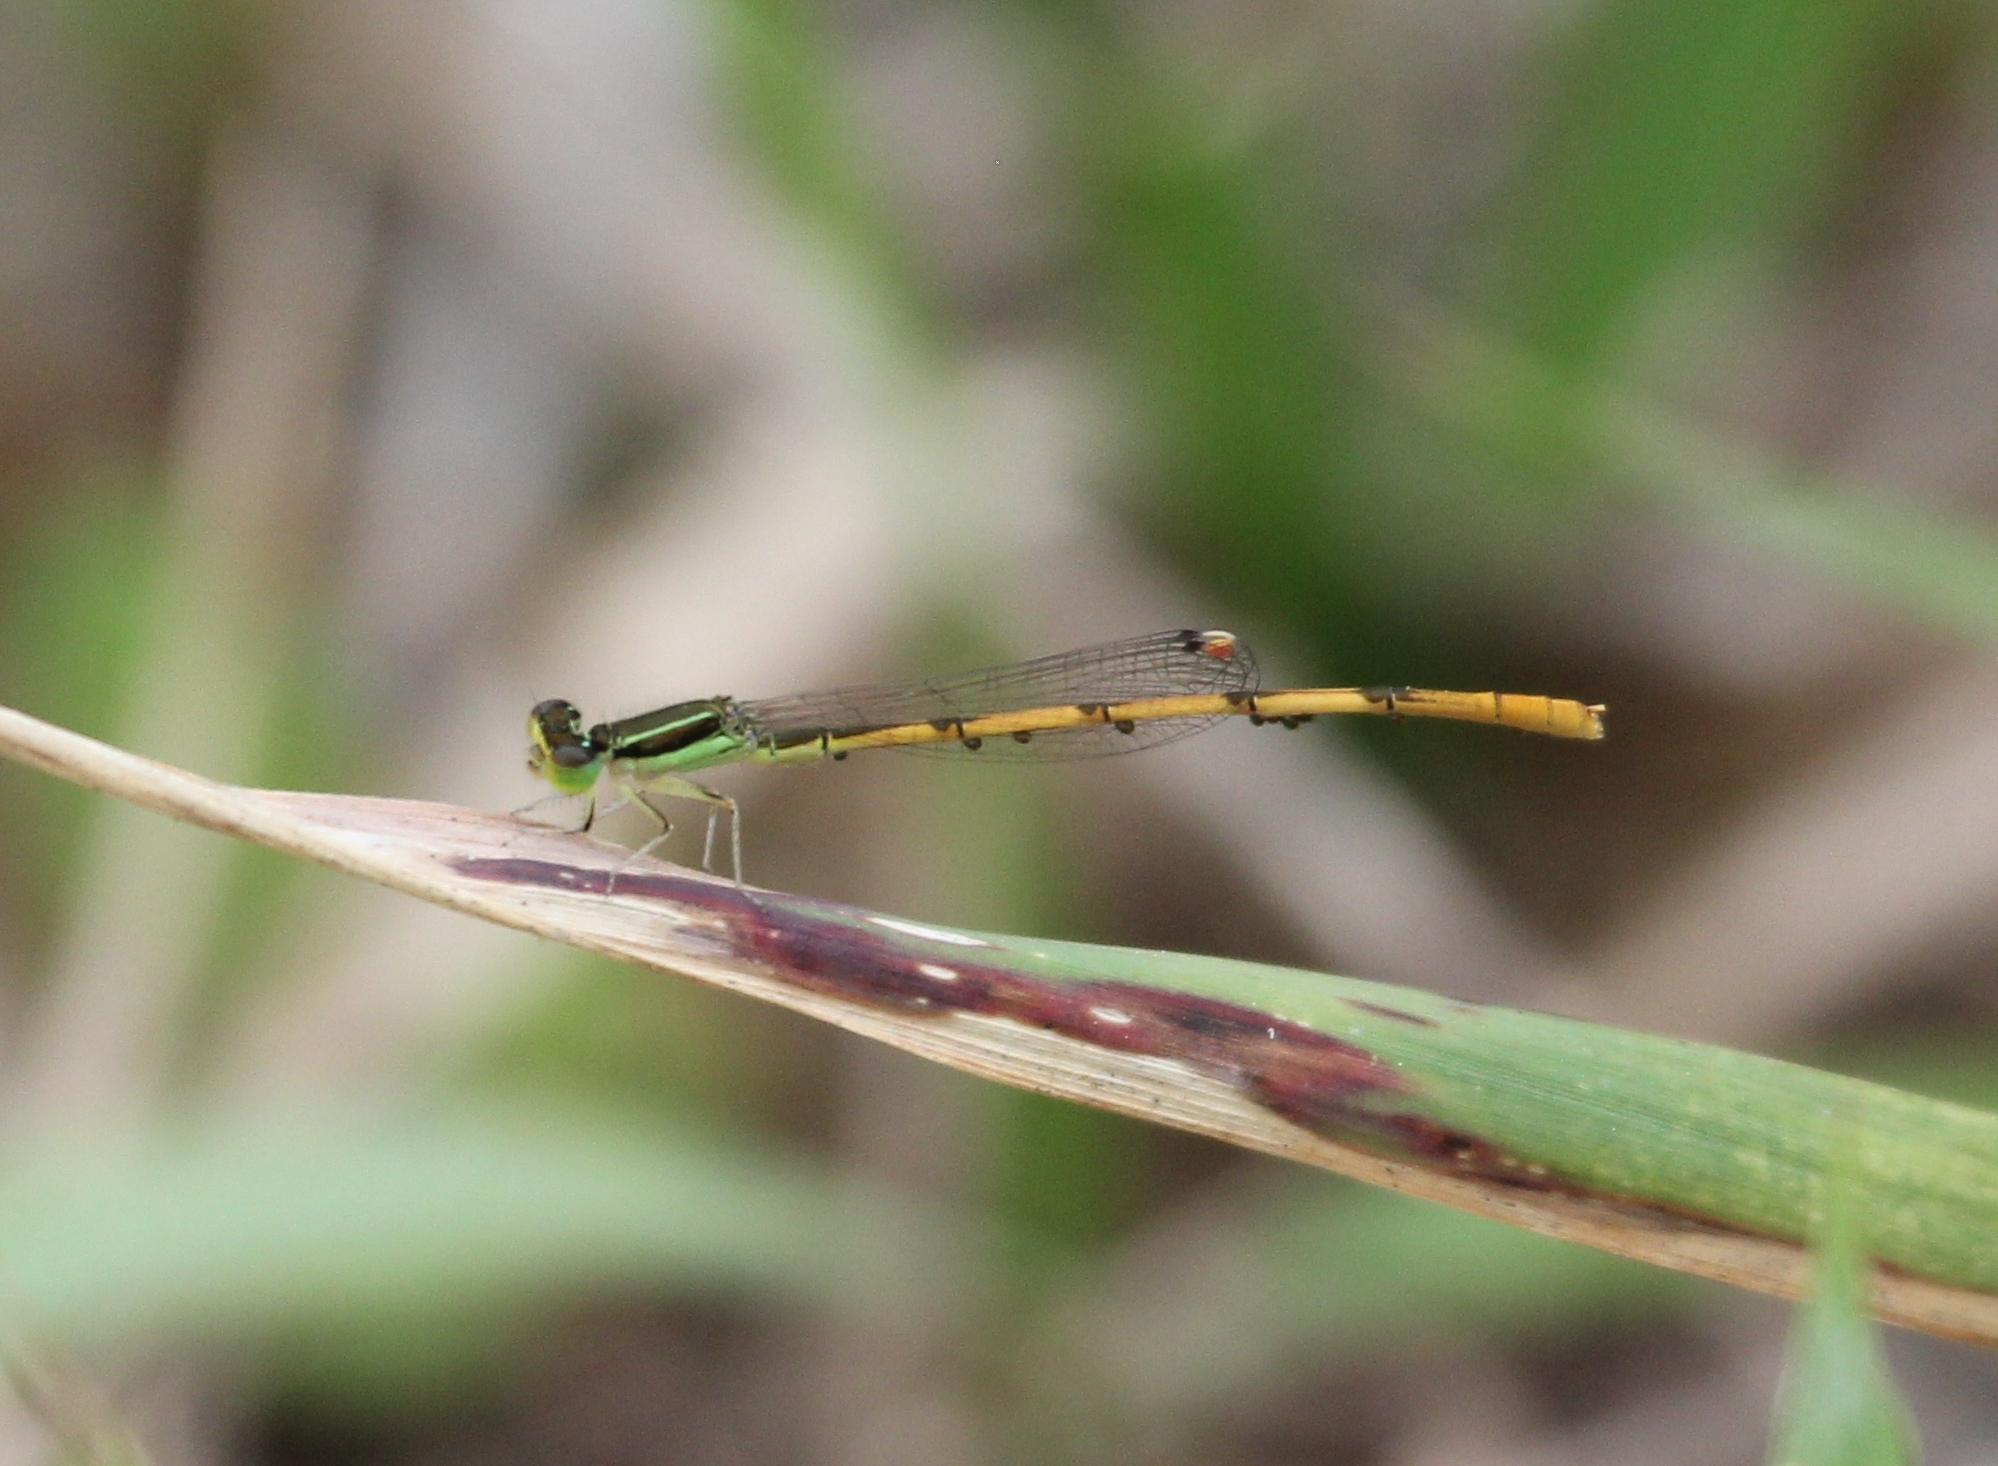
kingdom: Animalia
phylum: Arthropoda
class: Insecta
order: Odonata
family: Coenagrionidae
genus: Ischnura
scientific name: Ischnura hastata
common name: Citrine forktail
